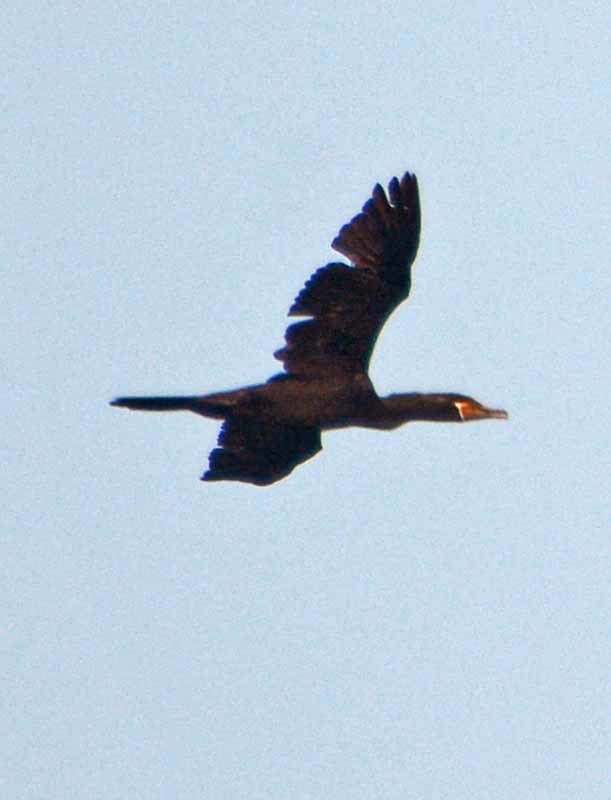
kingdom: Animalia
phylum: Chordata
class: Aves
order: Suliformes
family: Phalacrocoracidae
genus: Phalacrocorax
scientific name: Phalacrocorax brasilianus
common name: Neotropic cormorant
